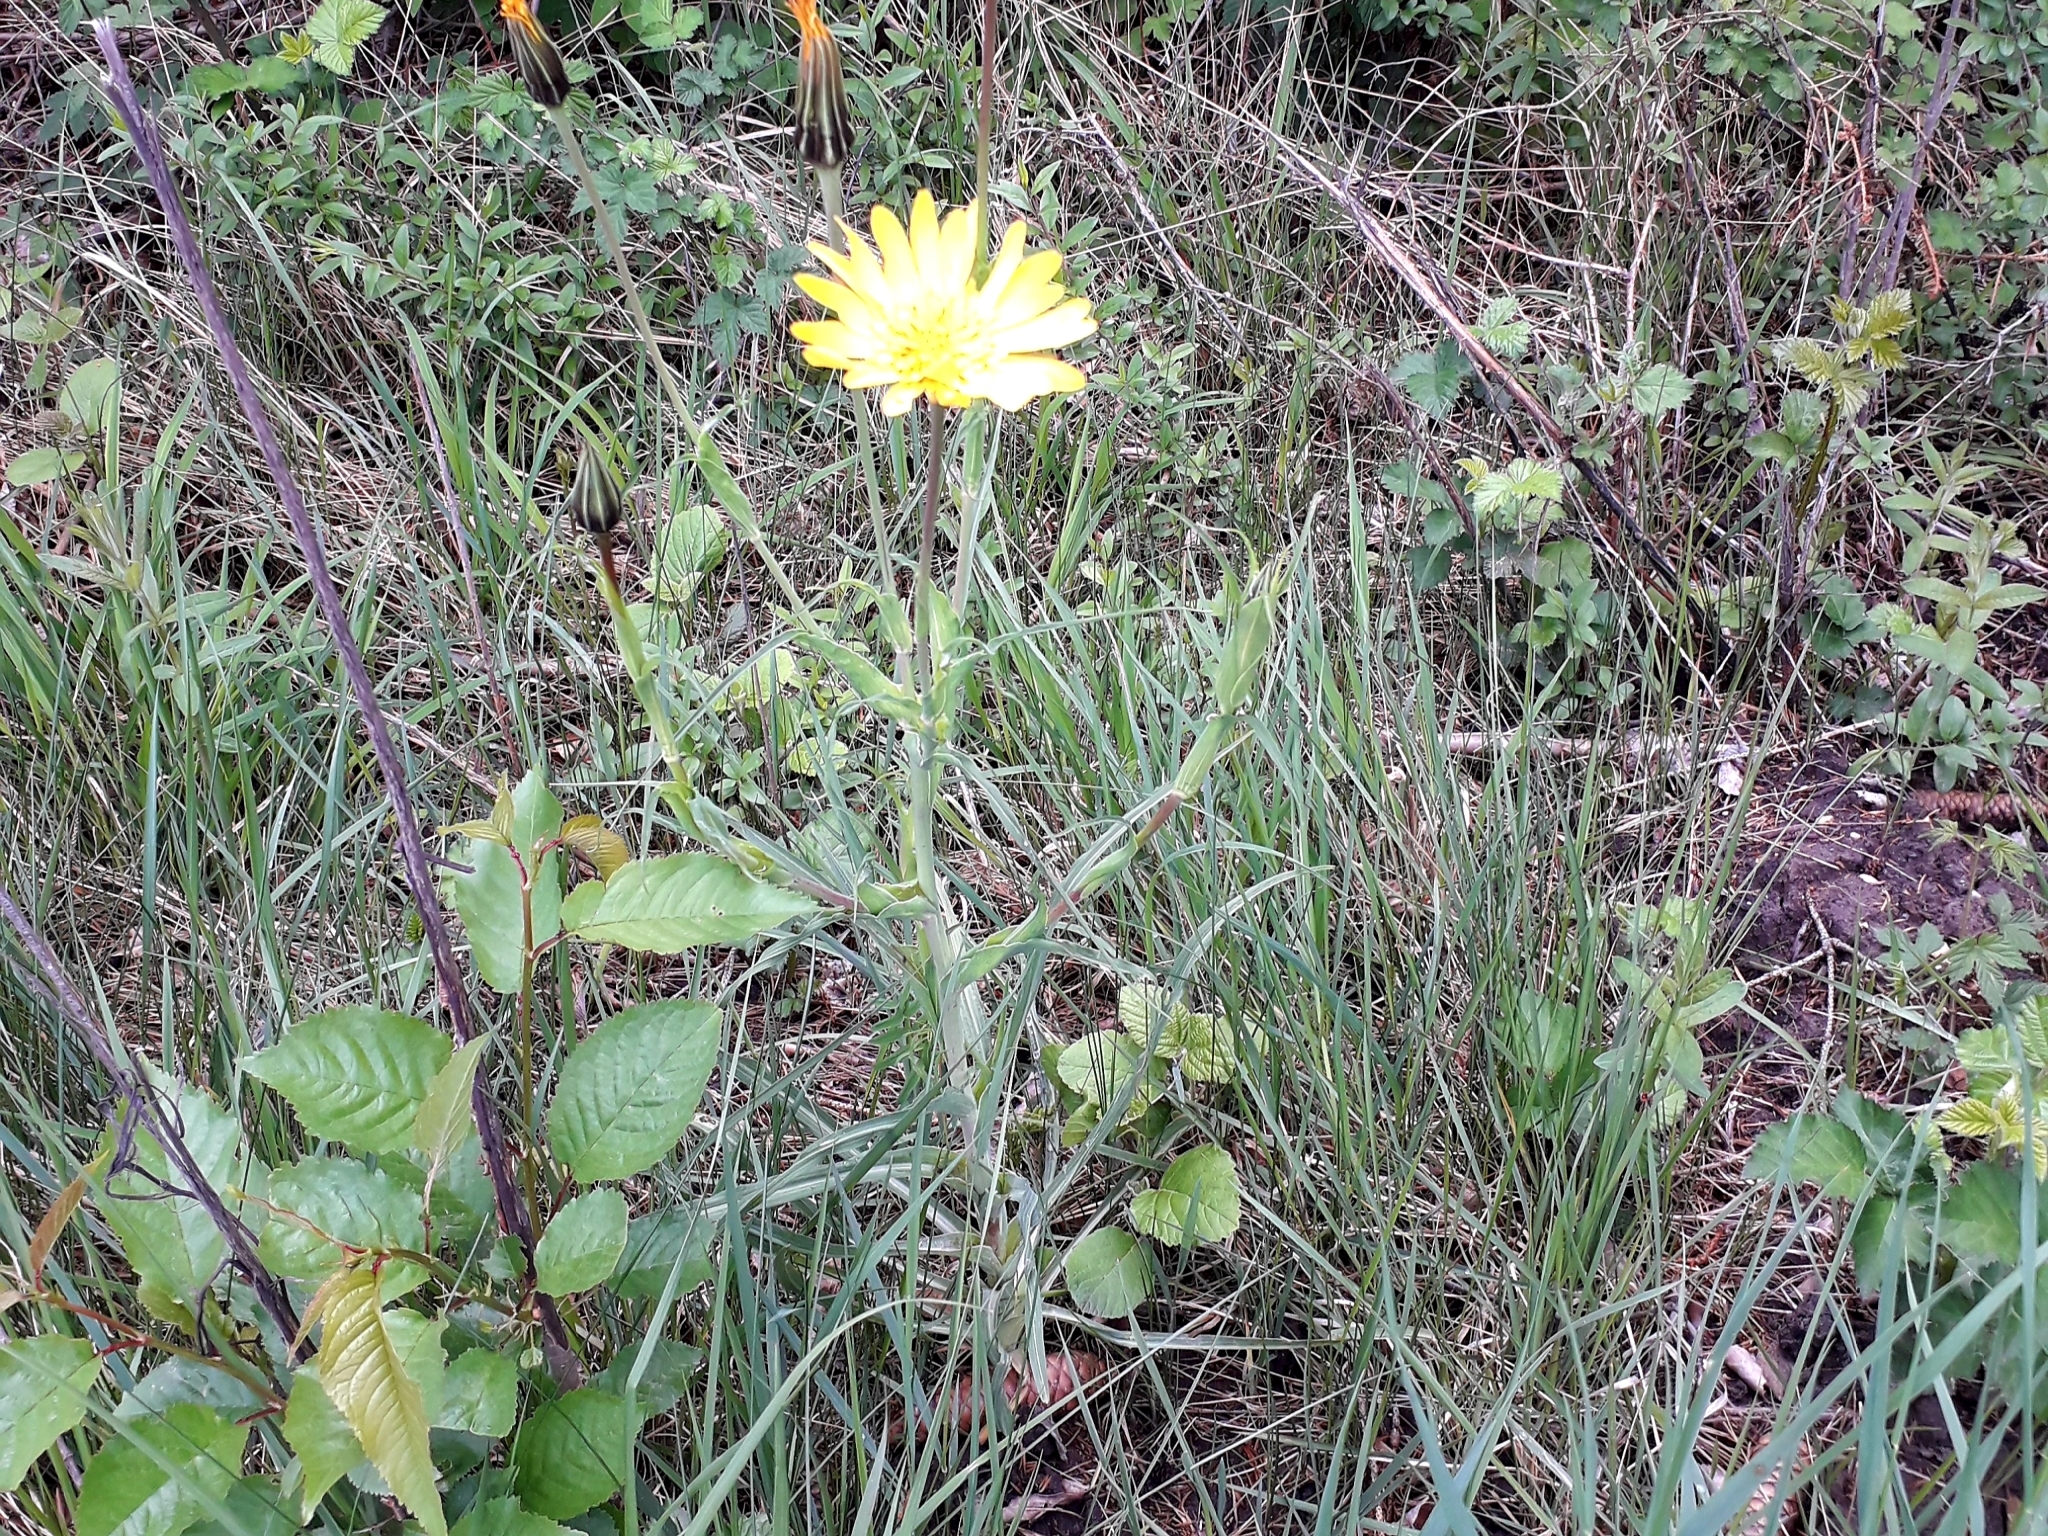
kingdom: Plantae
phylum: Tracheophyta
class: Magnoliopsida
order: Asterales
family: Asteraceae
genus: Tragopogon
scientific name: Tragopogon orientalis
